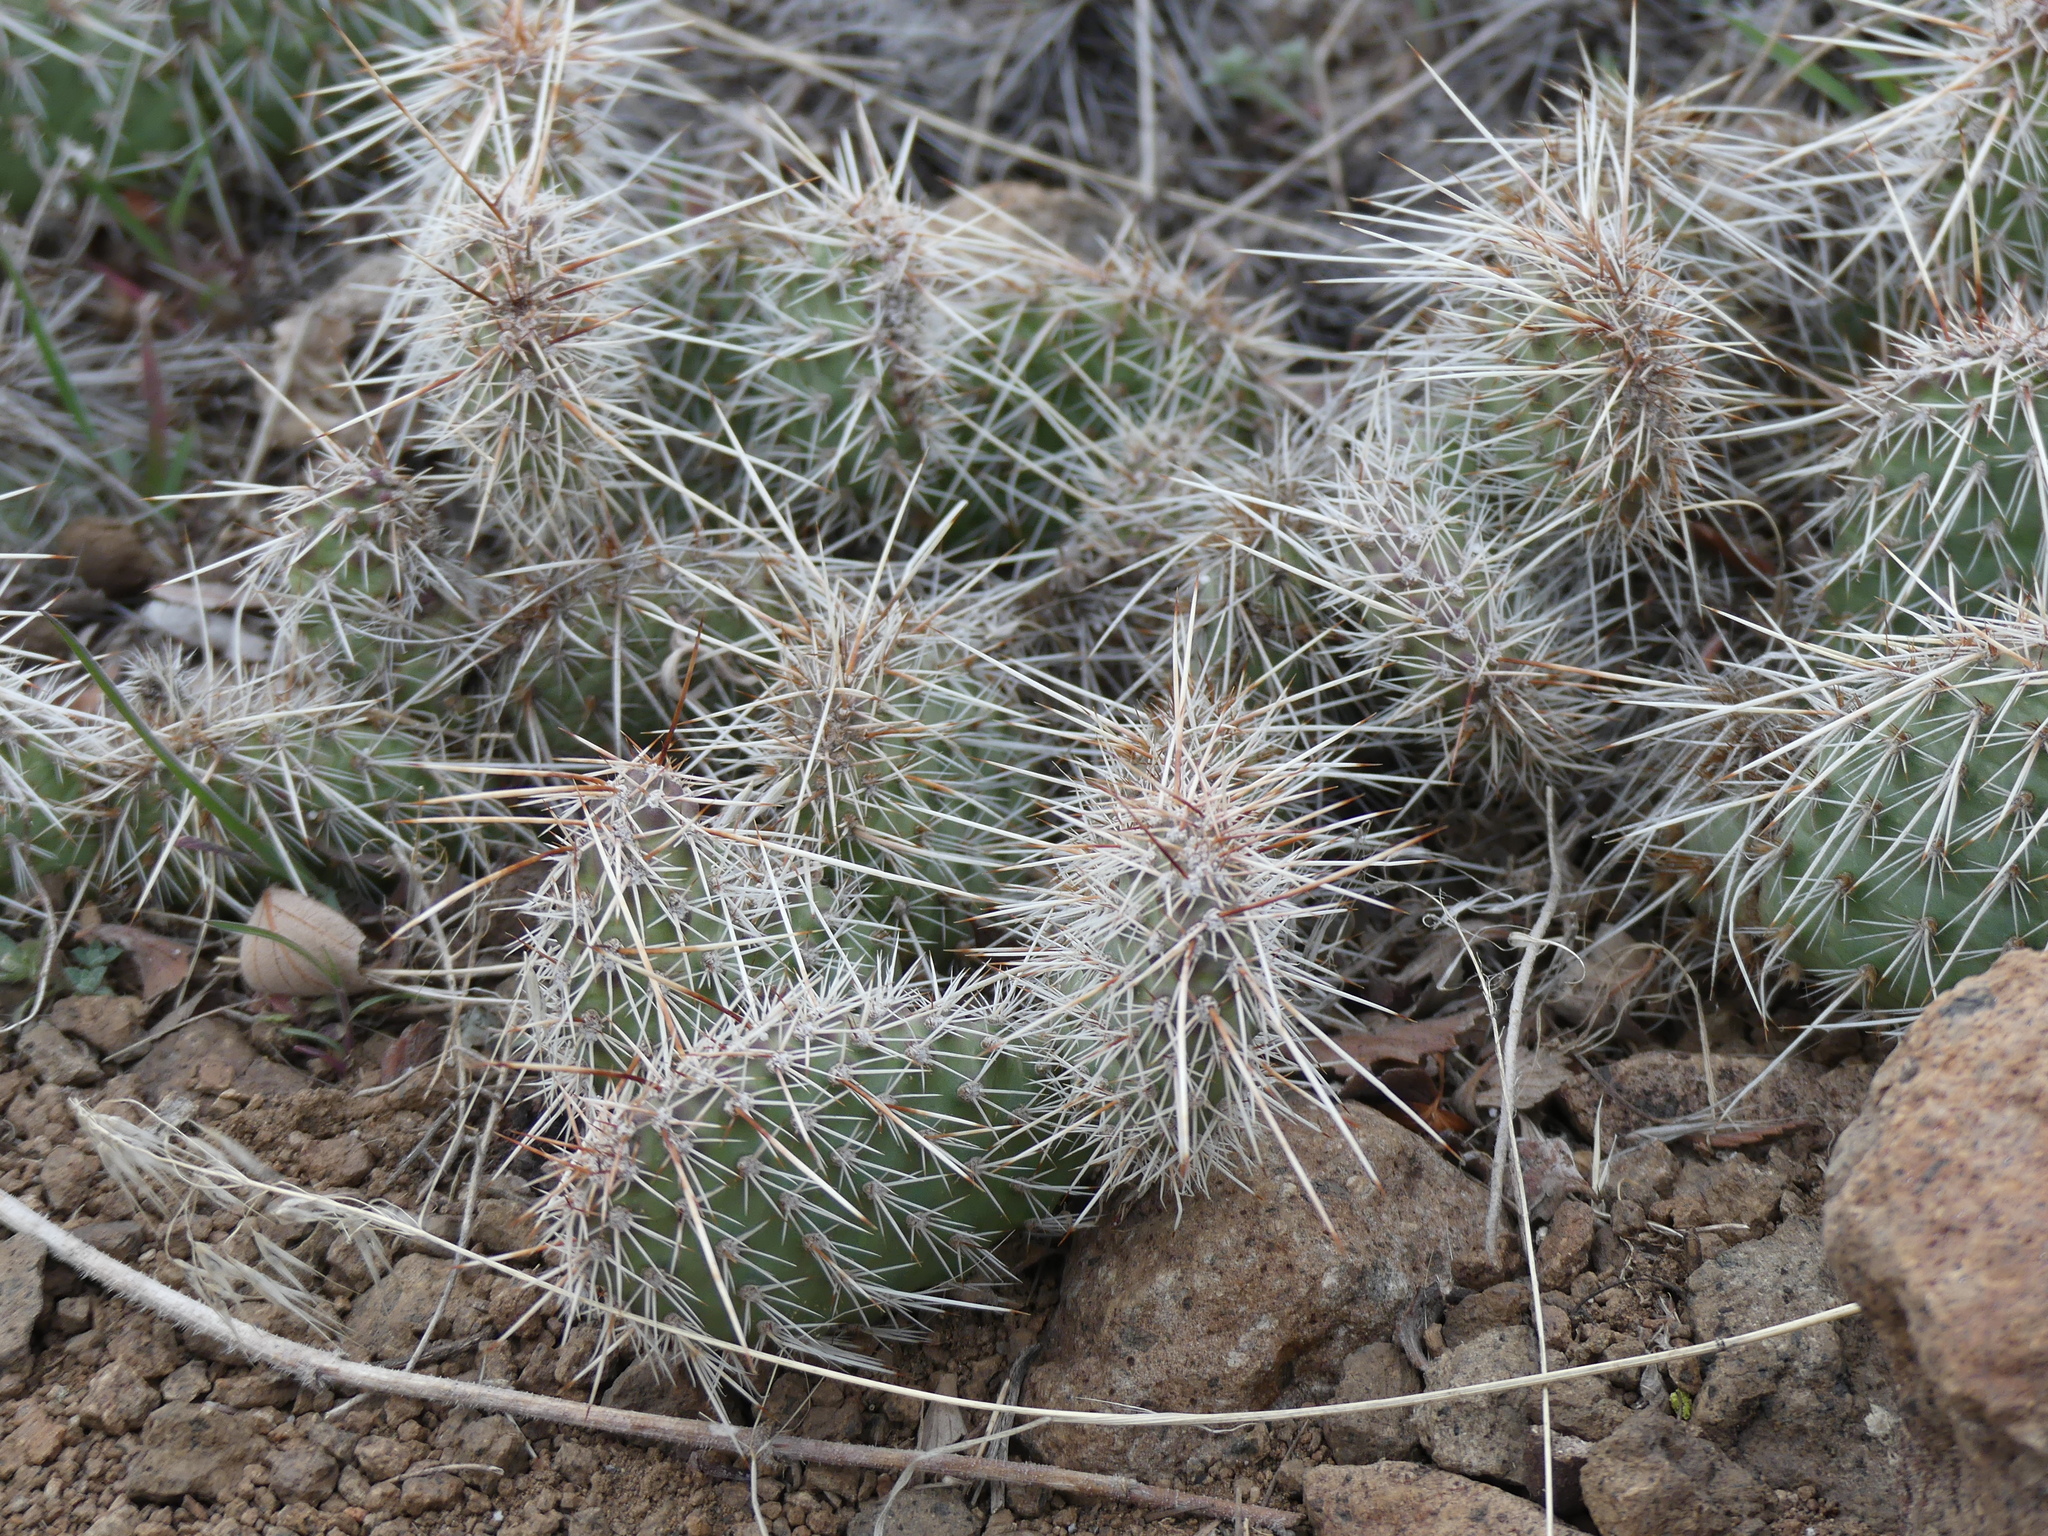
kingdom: Plantae
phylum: Tracheophyta
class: Magnoliopsida
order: Caryophyllales
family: Cactaceae
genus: Opuntia
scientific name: Opuntia polyacantha
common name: Plains prickly-pear
